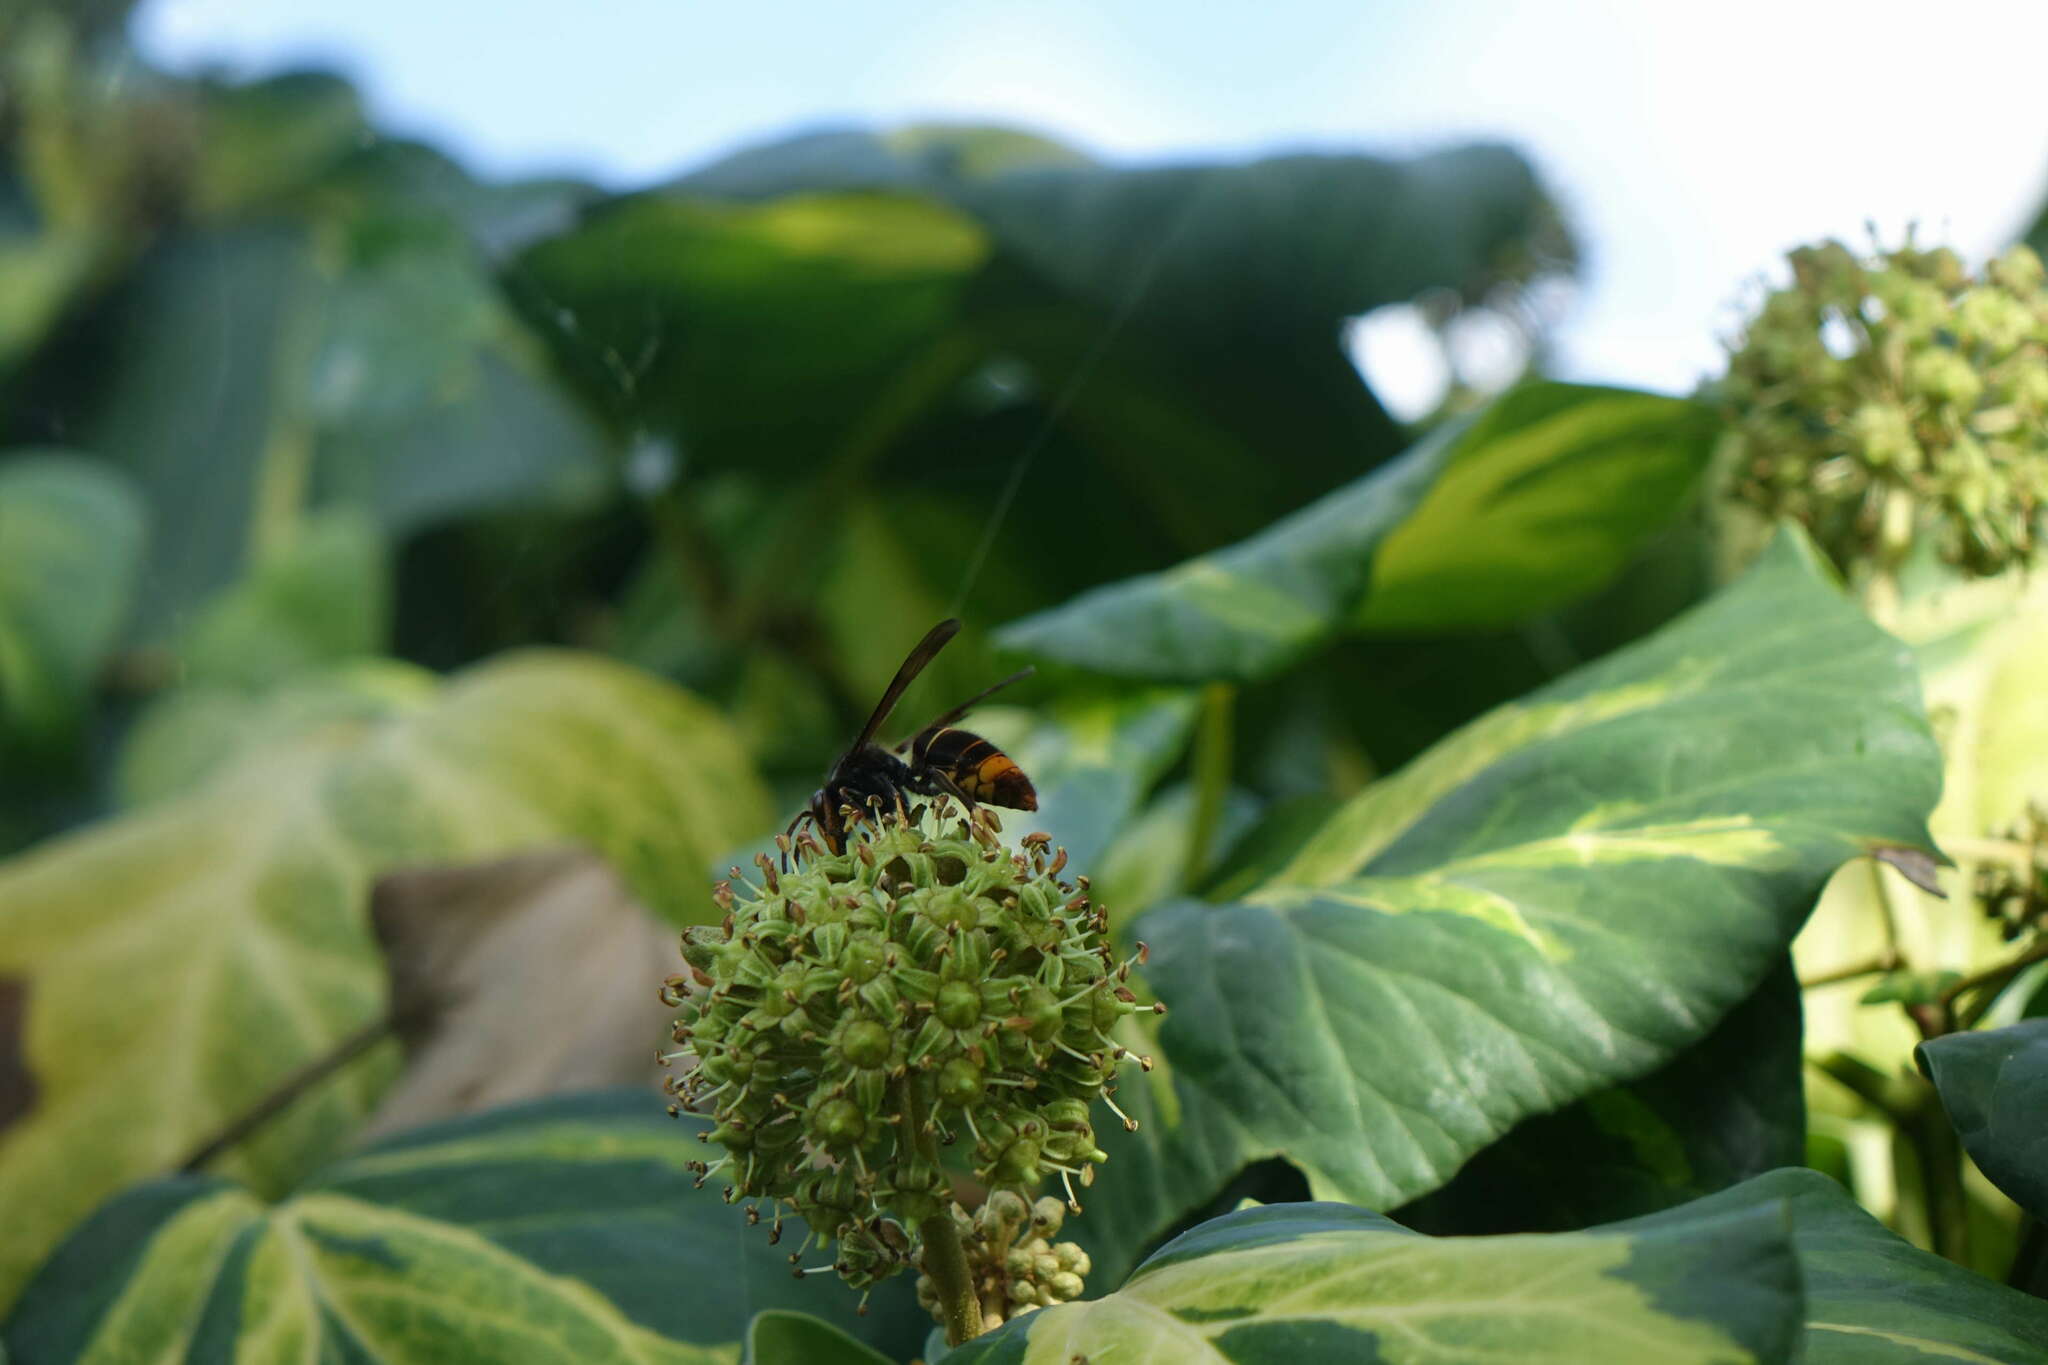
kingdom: Animalia
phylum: Arthropoda
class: Insecta
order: Hymenoptera
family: Vespidae
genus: Vespa
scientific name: Vespa velutina
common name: Asian hornet
